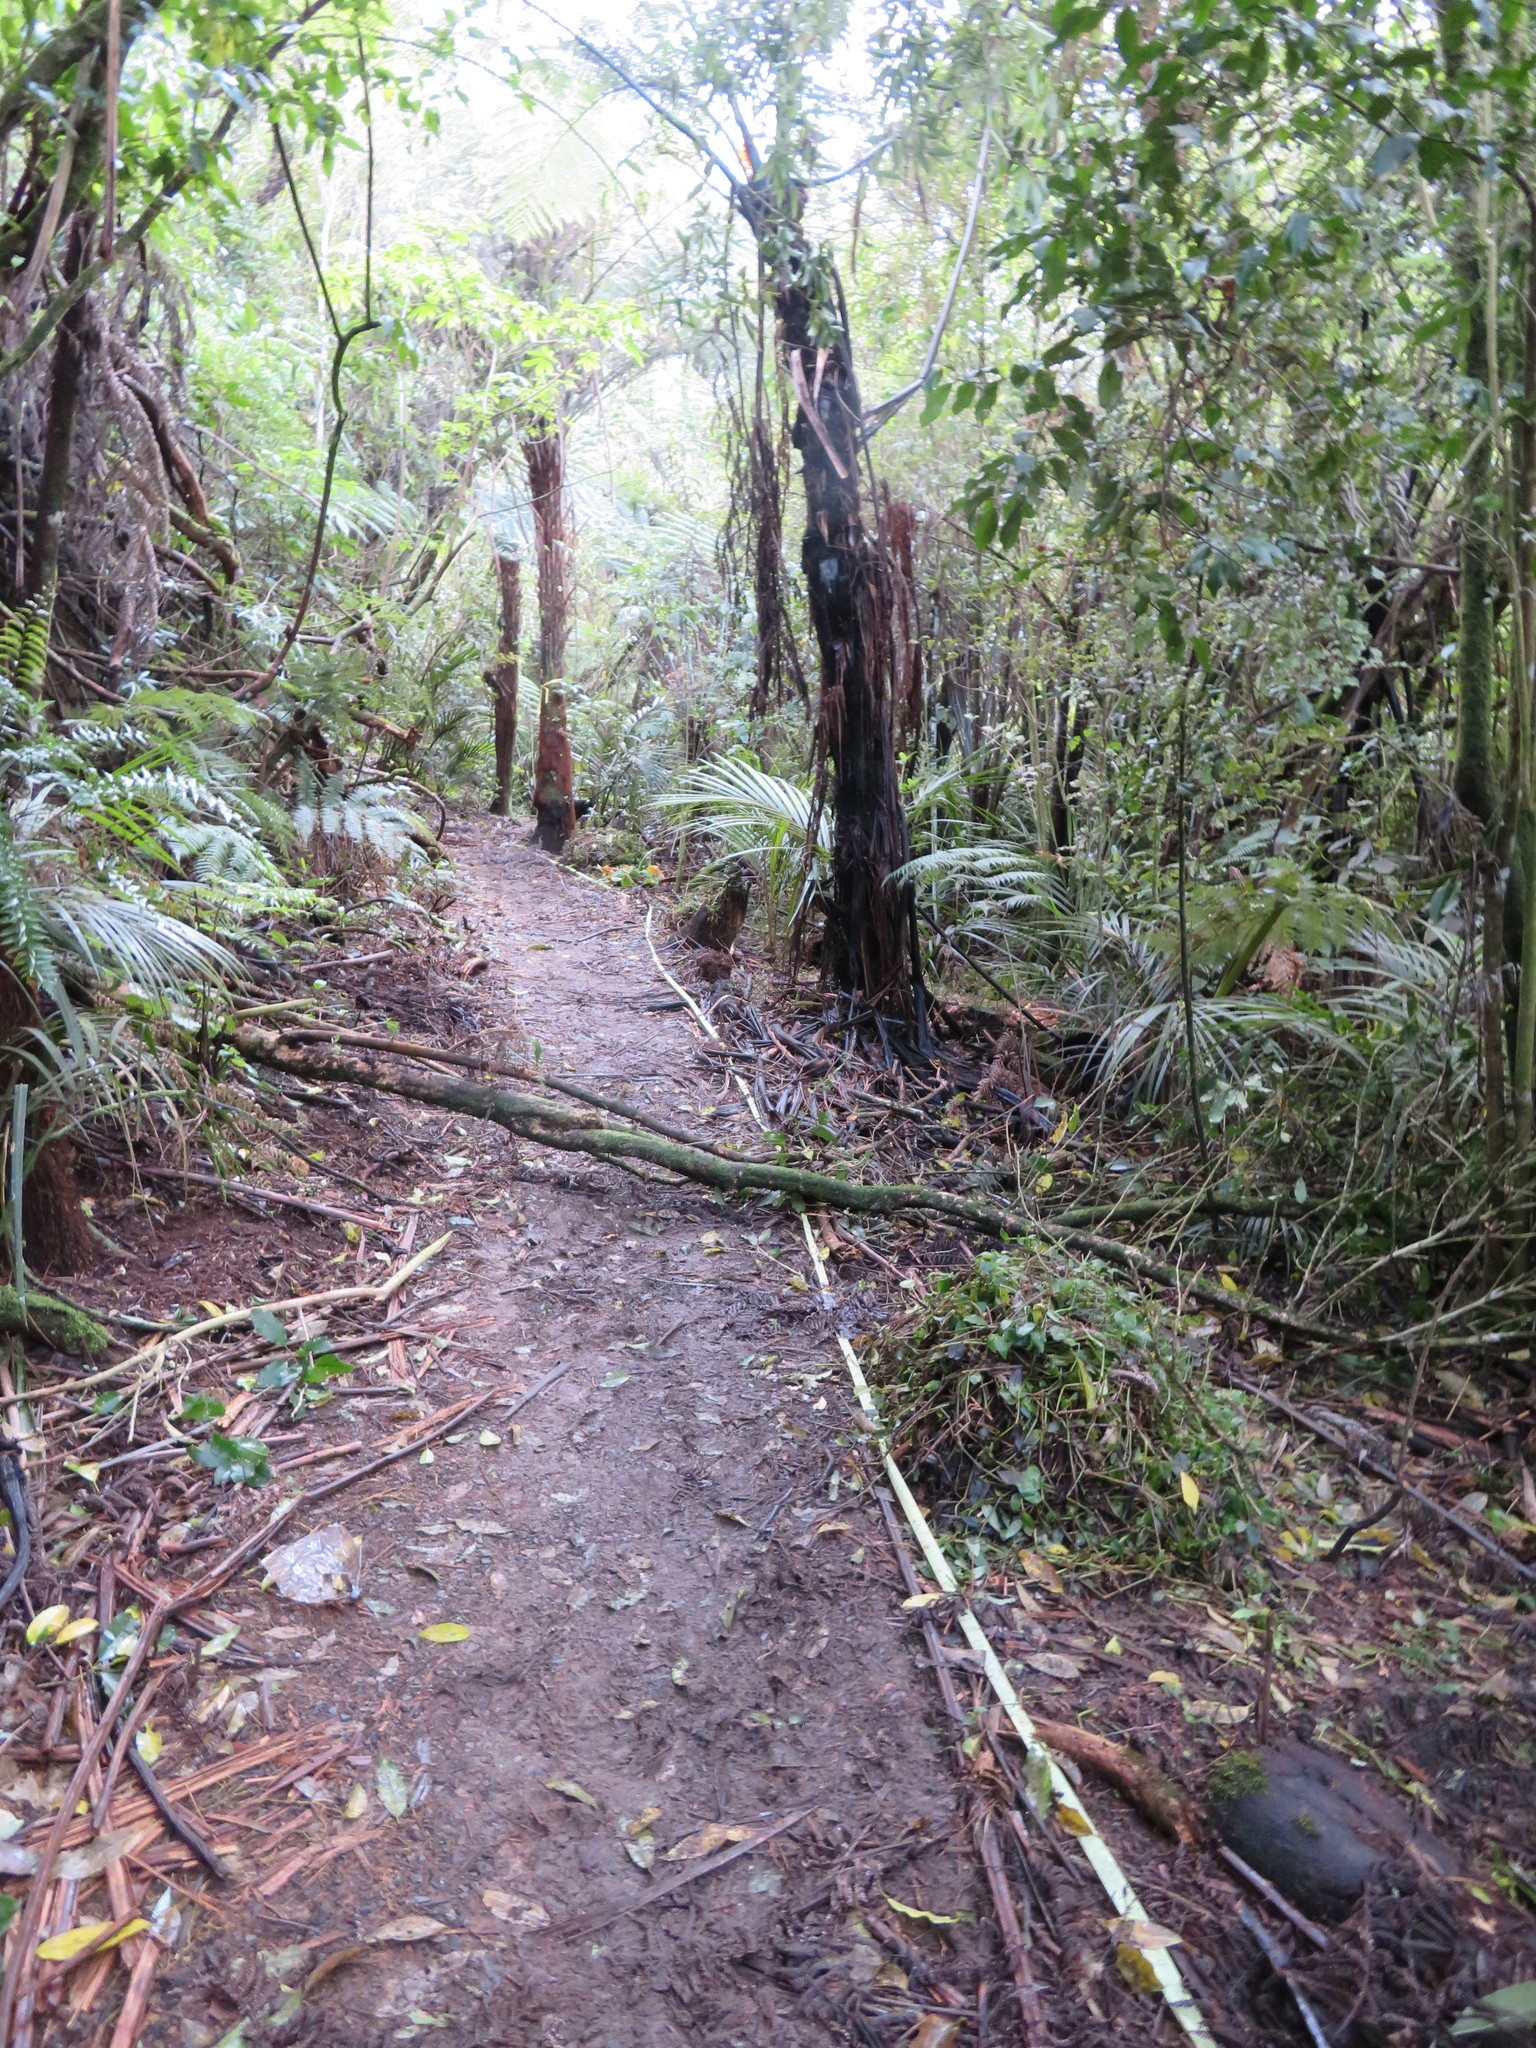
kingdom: Plantae
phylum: Tracheophyta
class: Magnoliopsida
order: Malpighiales
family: Violaceae
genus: Melicytus
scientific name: Melicytus ramiflorus
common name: Mahoe
